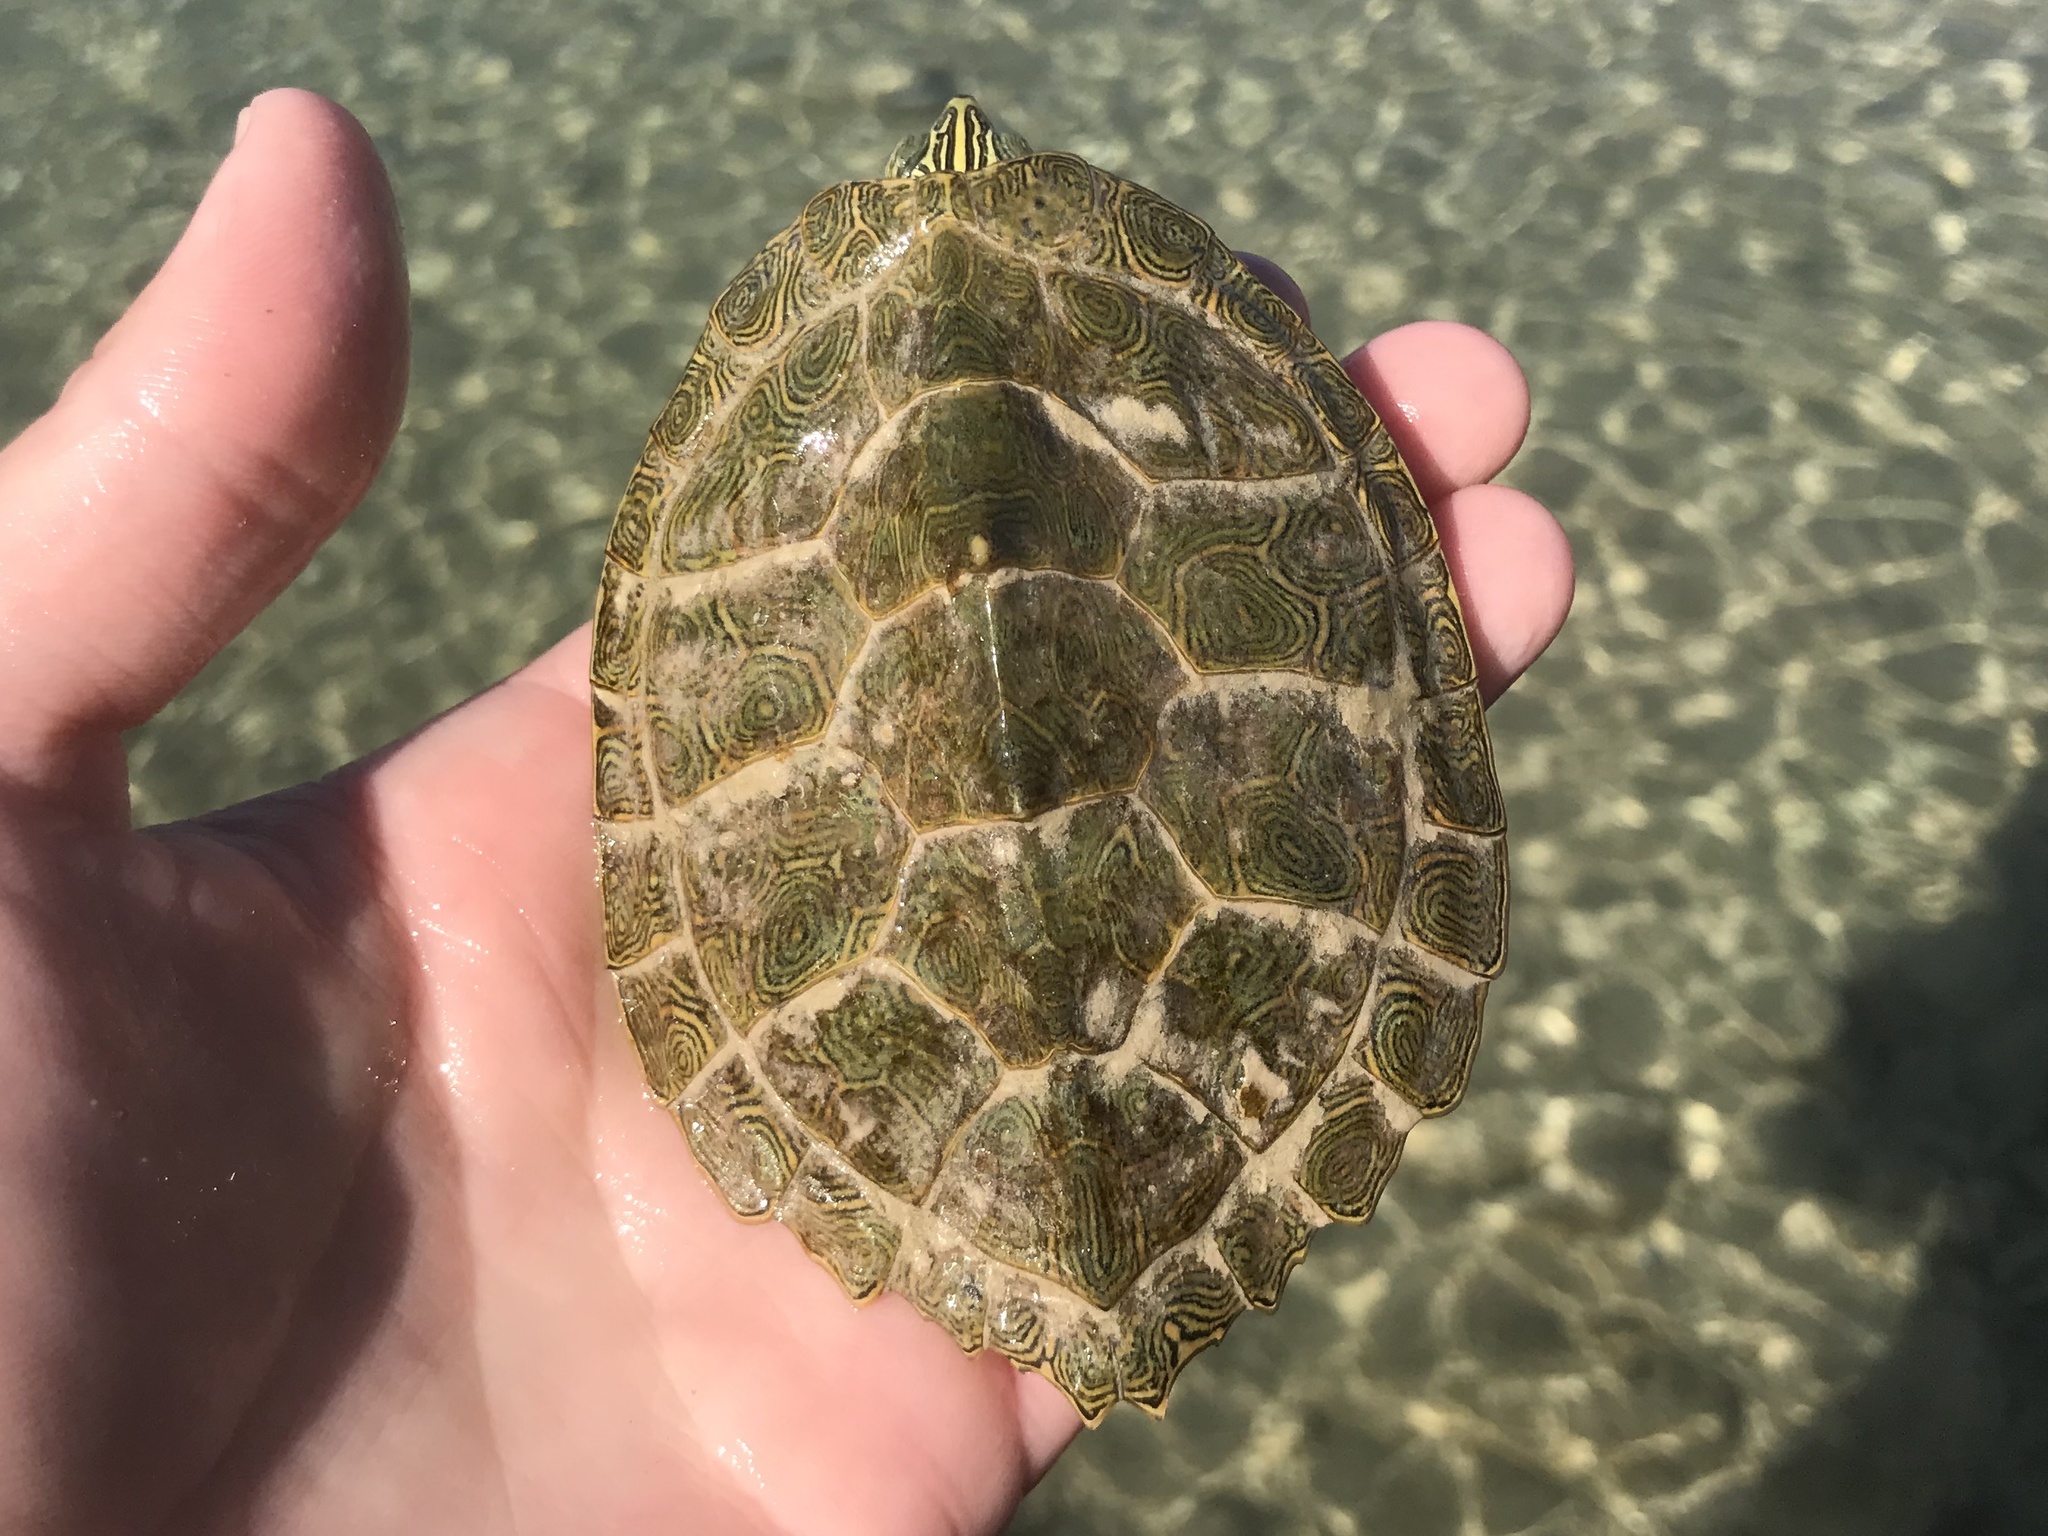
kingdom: Animalia
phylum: Chordata
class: Testudines
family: Emydidae
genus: Graptemys
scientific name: Graptemys caglei
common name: Cagle's map turtle
